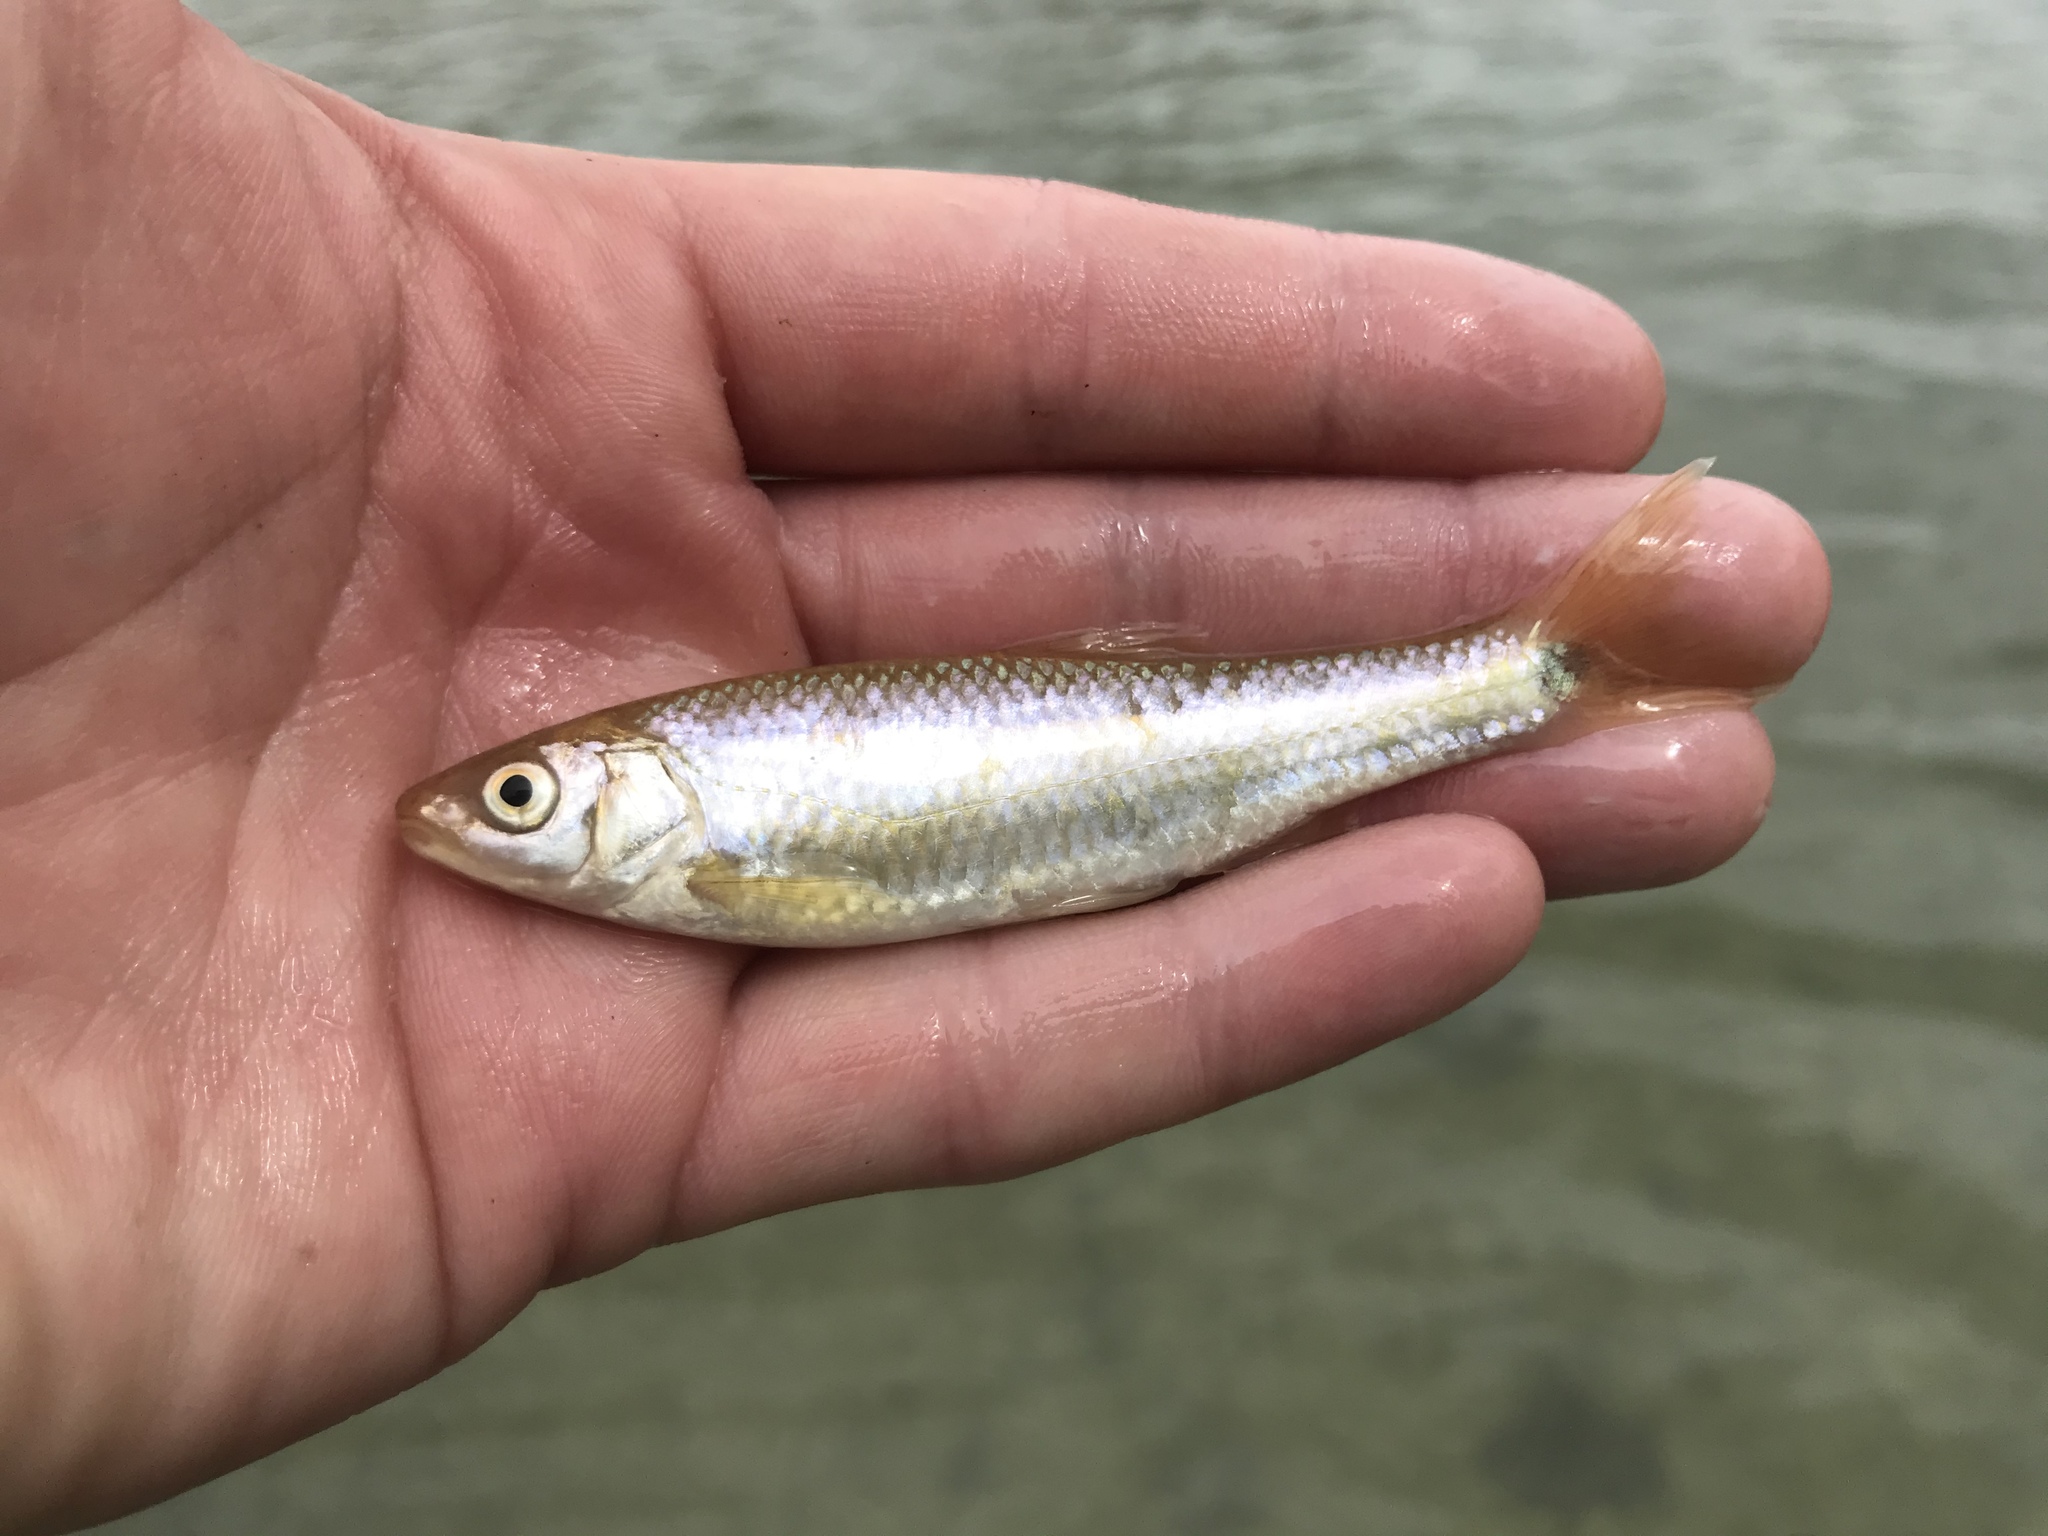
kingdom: Animalia
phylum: Chordata
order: Cypriniformes
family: Cyprinidae
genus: Cyprinella
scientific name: Cyprinella venusta
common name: Blacktail shiner
